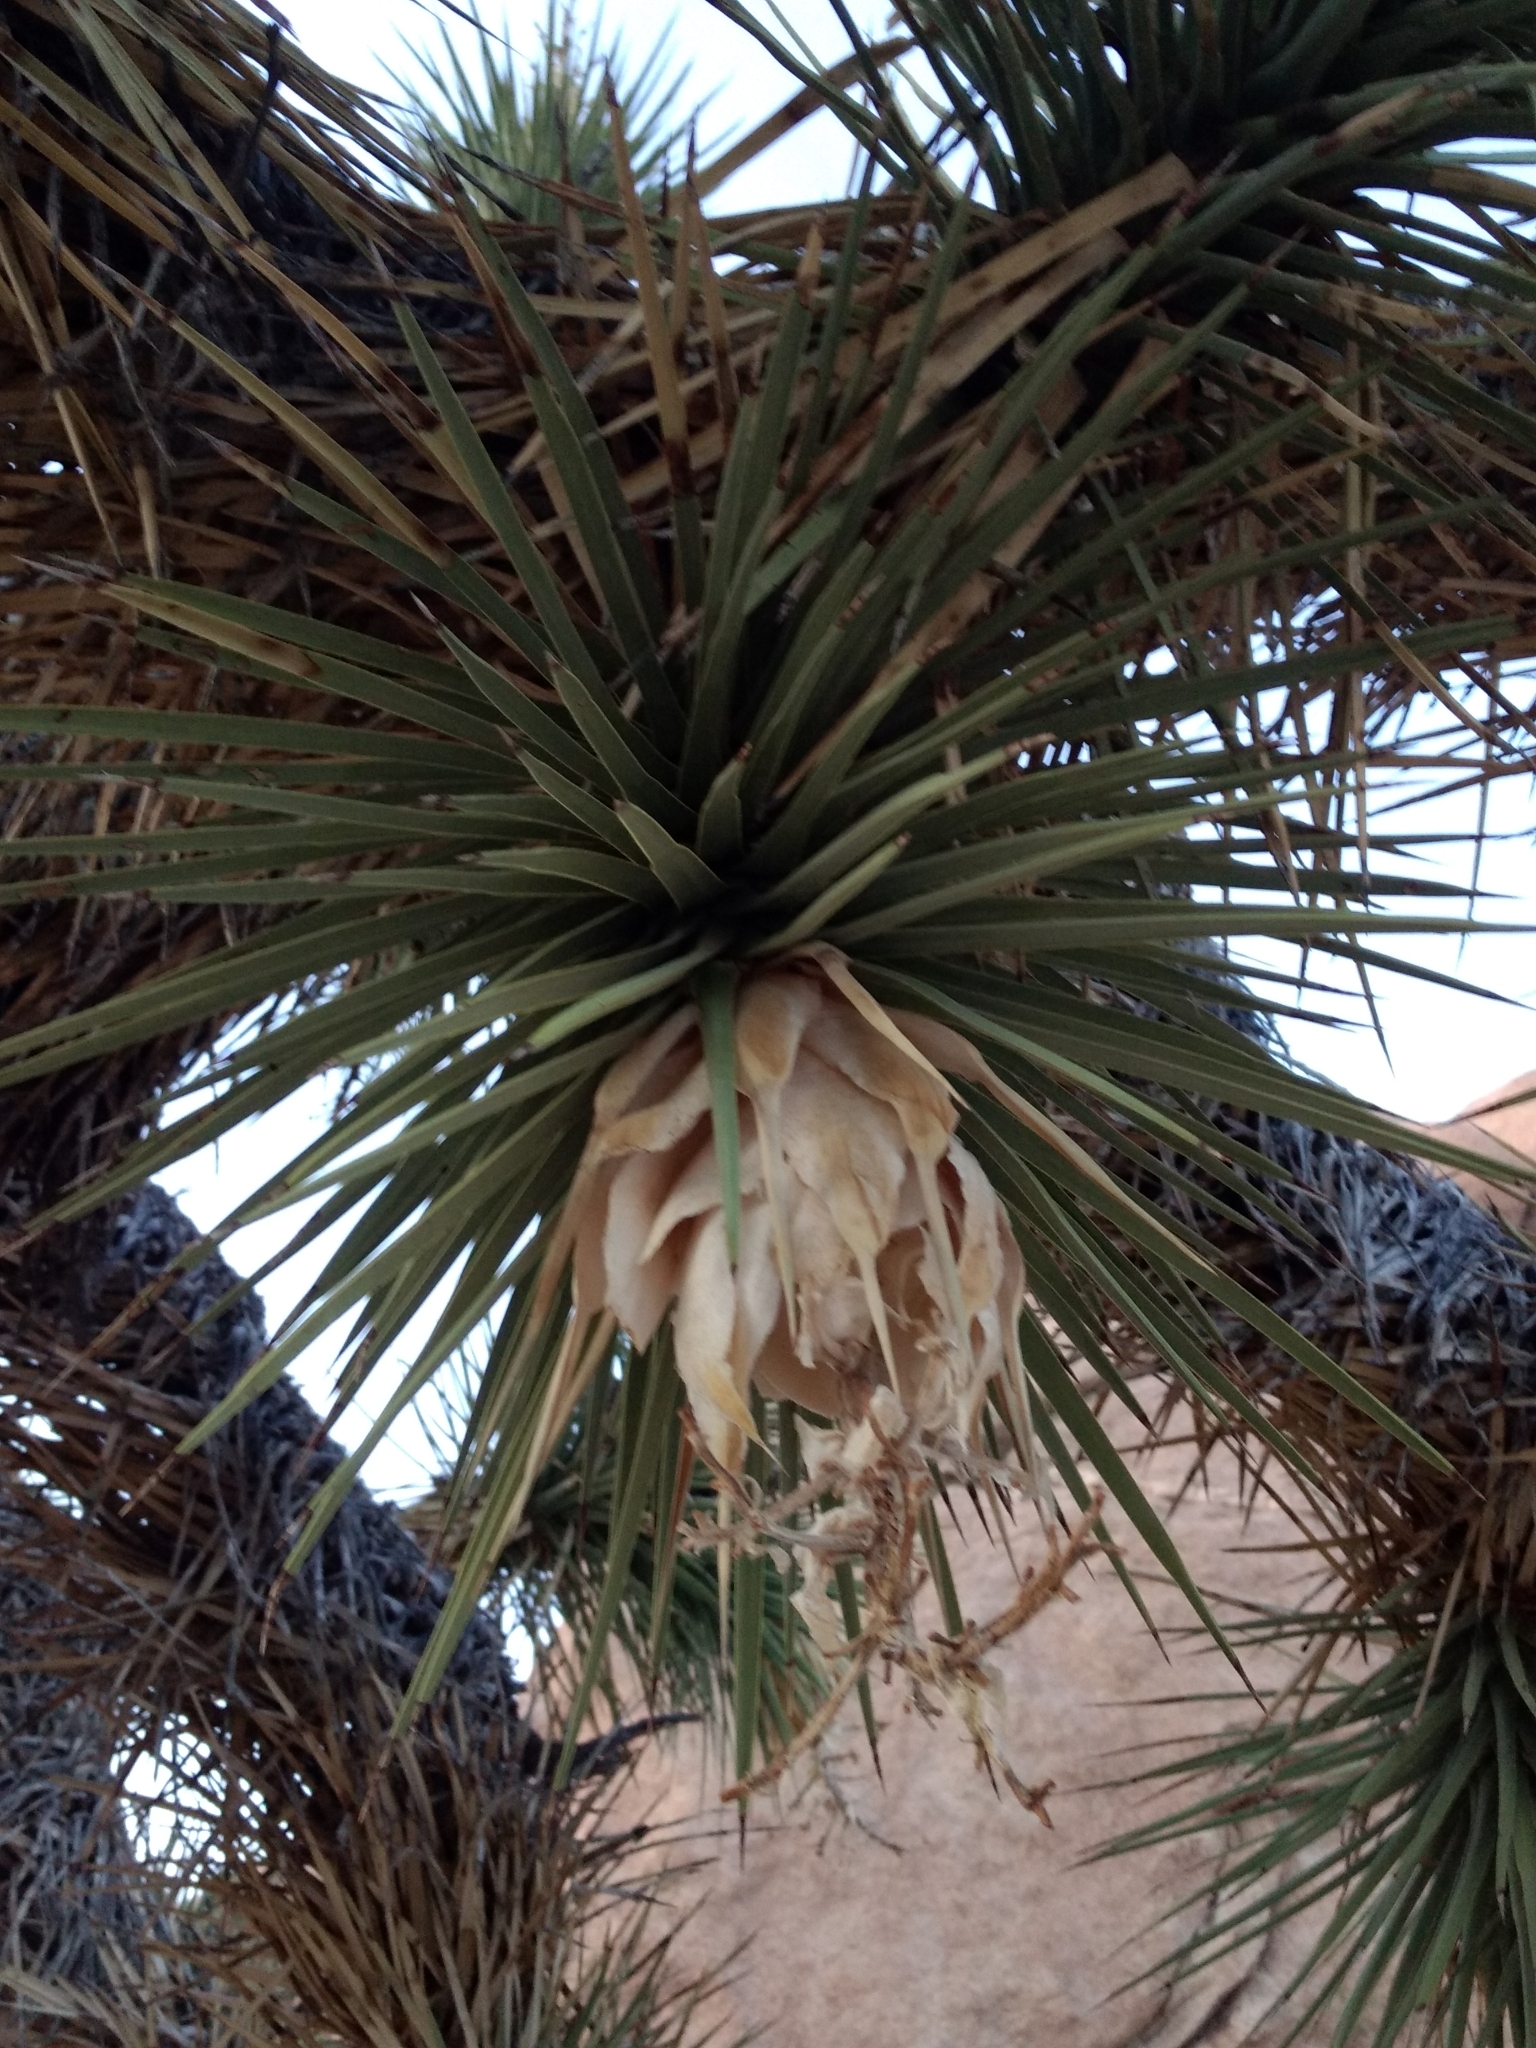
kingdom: Plantae
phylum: Tracheophyta
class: Liliopsida
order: Asparagales
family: Asparagaceae
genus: Yucca
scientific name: Yucca brevifolia
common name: Joshua tree
